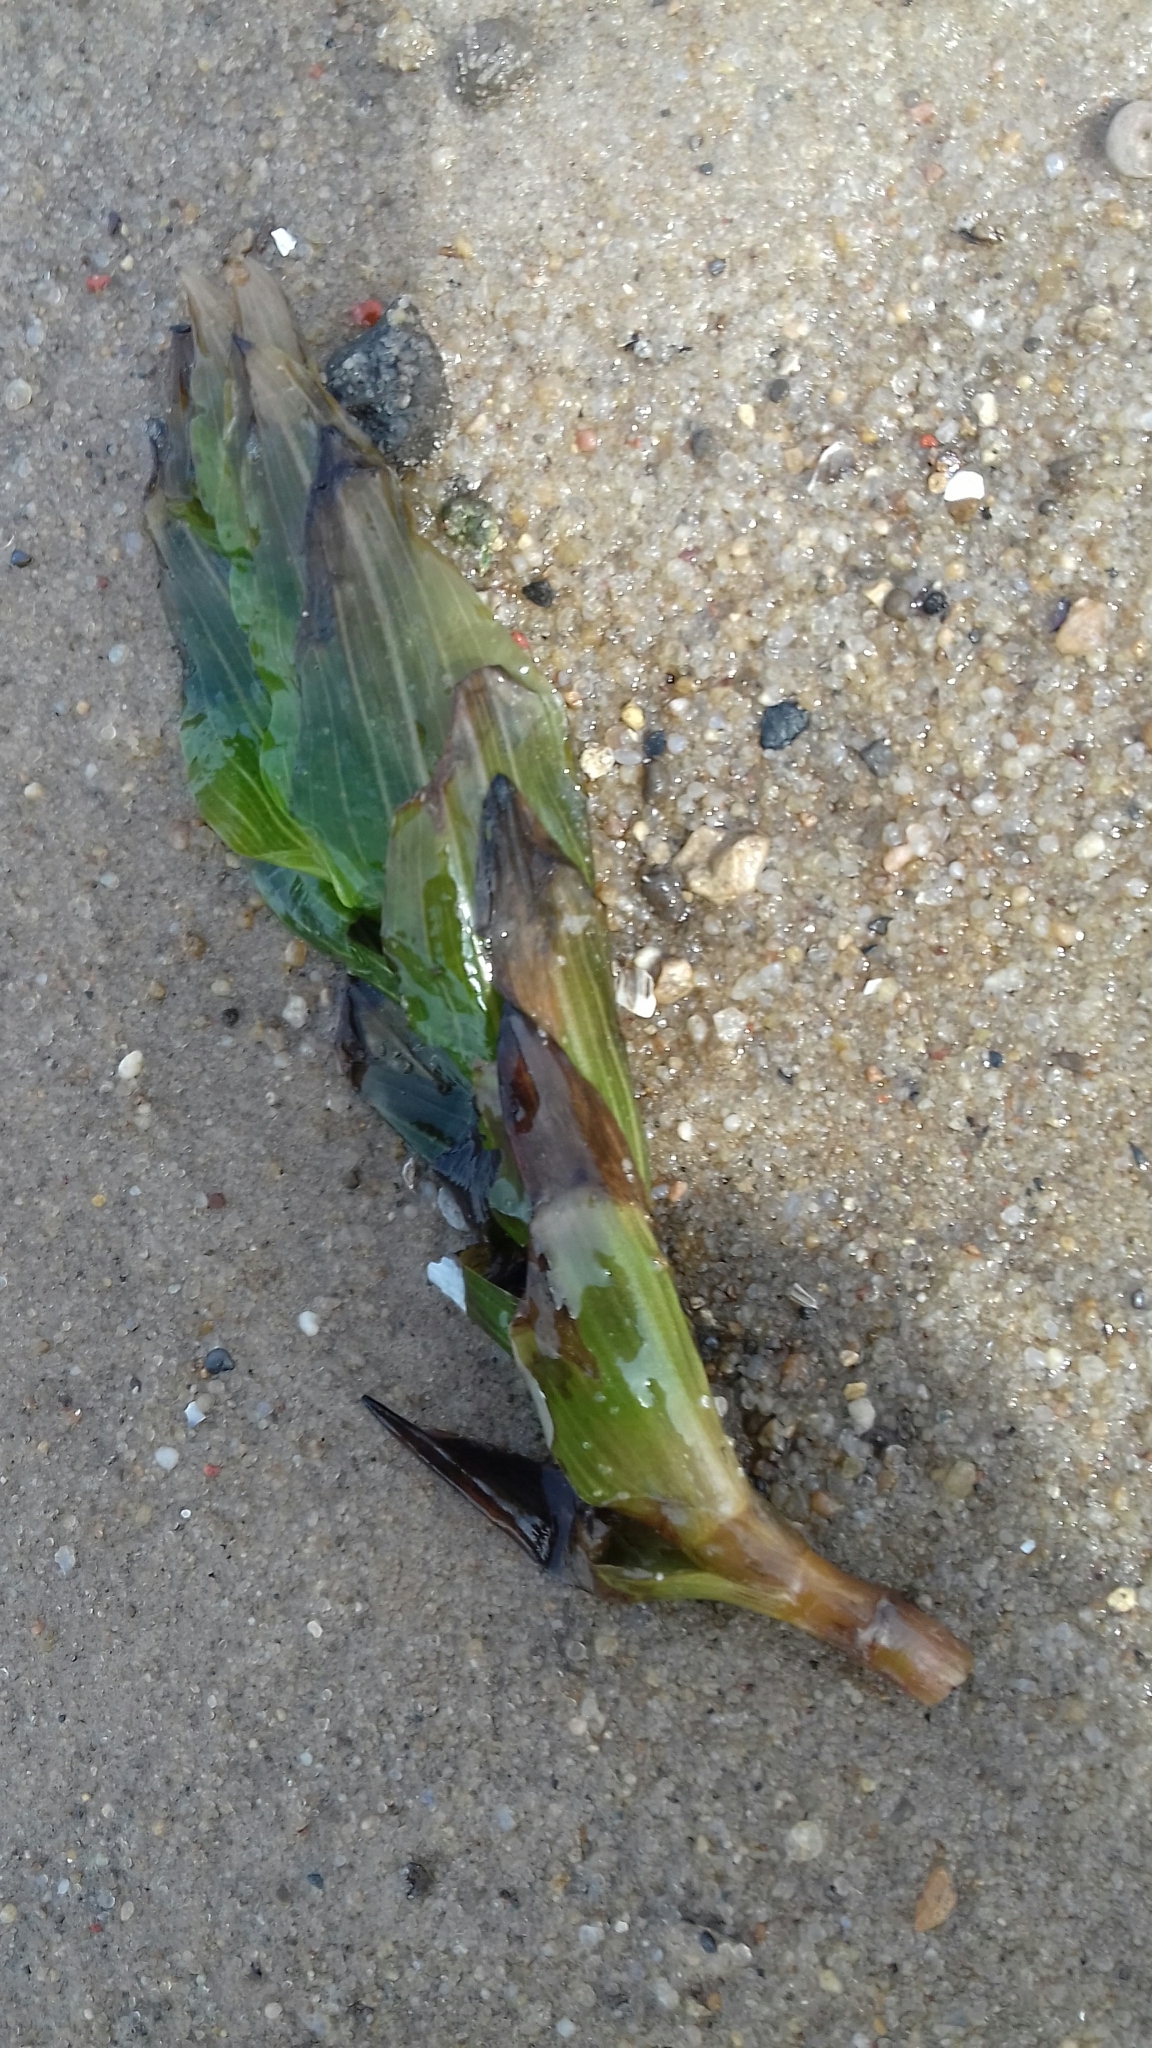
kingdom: Plantae
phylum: Tracheophyta
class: Liliopsida
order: Alismatales
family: Potamogetonaceae
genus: Potamogeton
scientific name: Potamogeton perfoliatus
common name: Perfoliate pondweed
